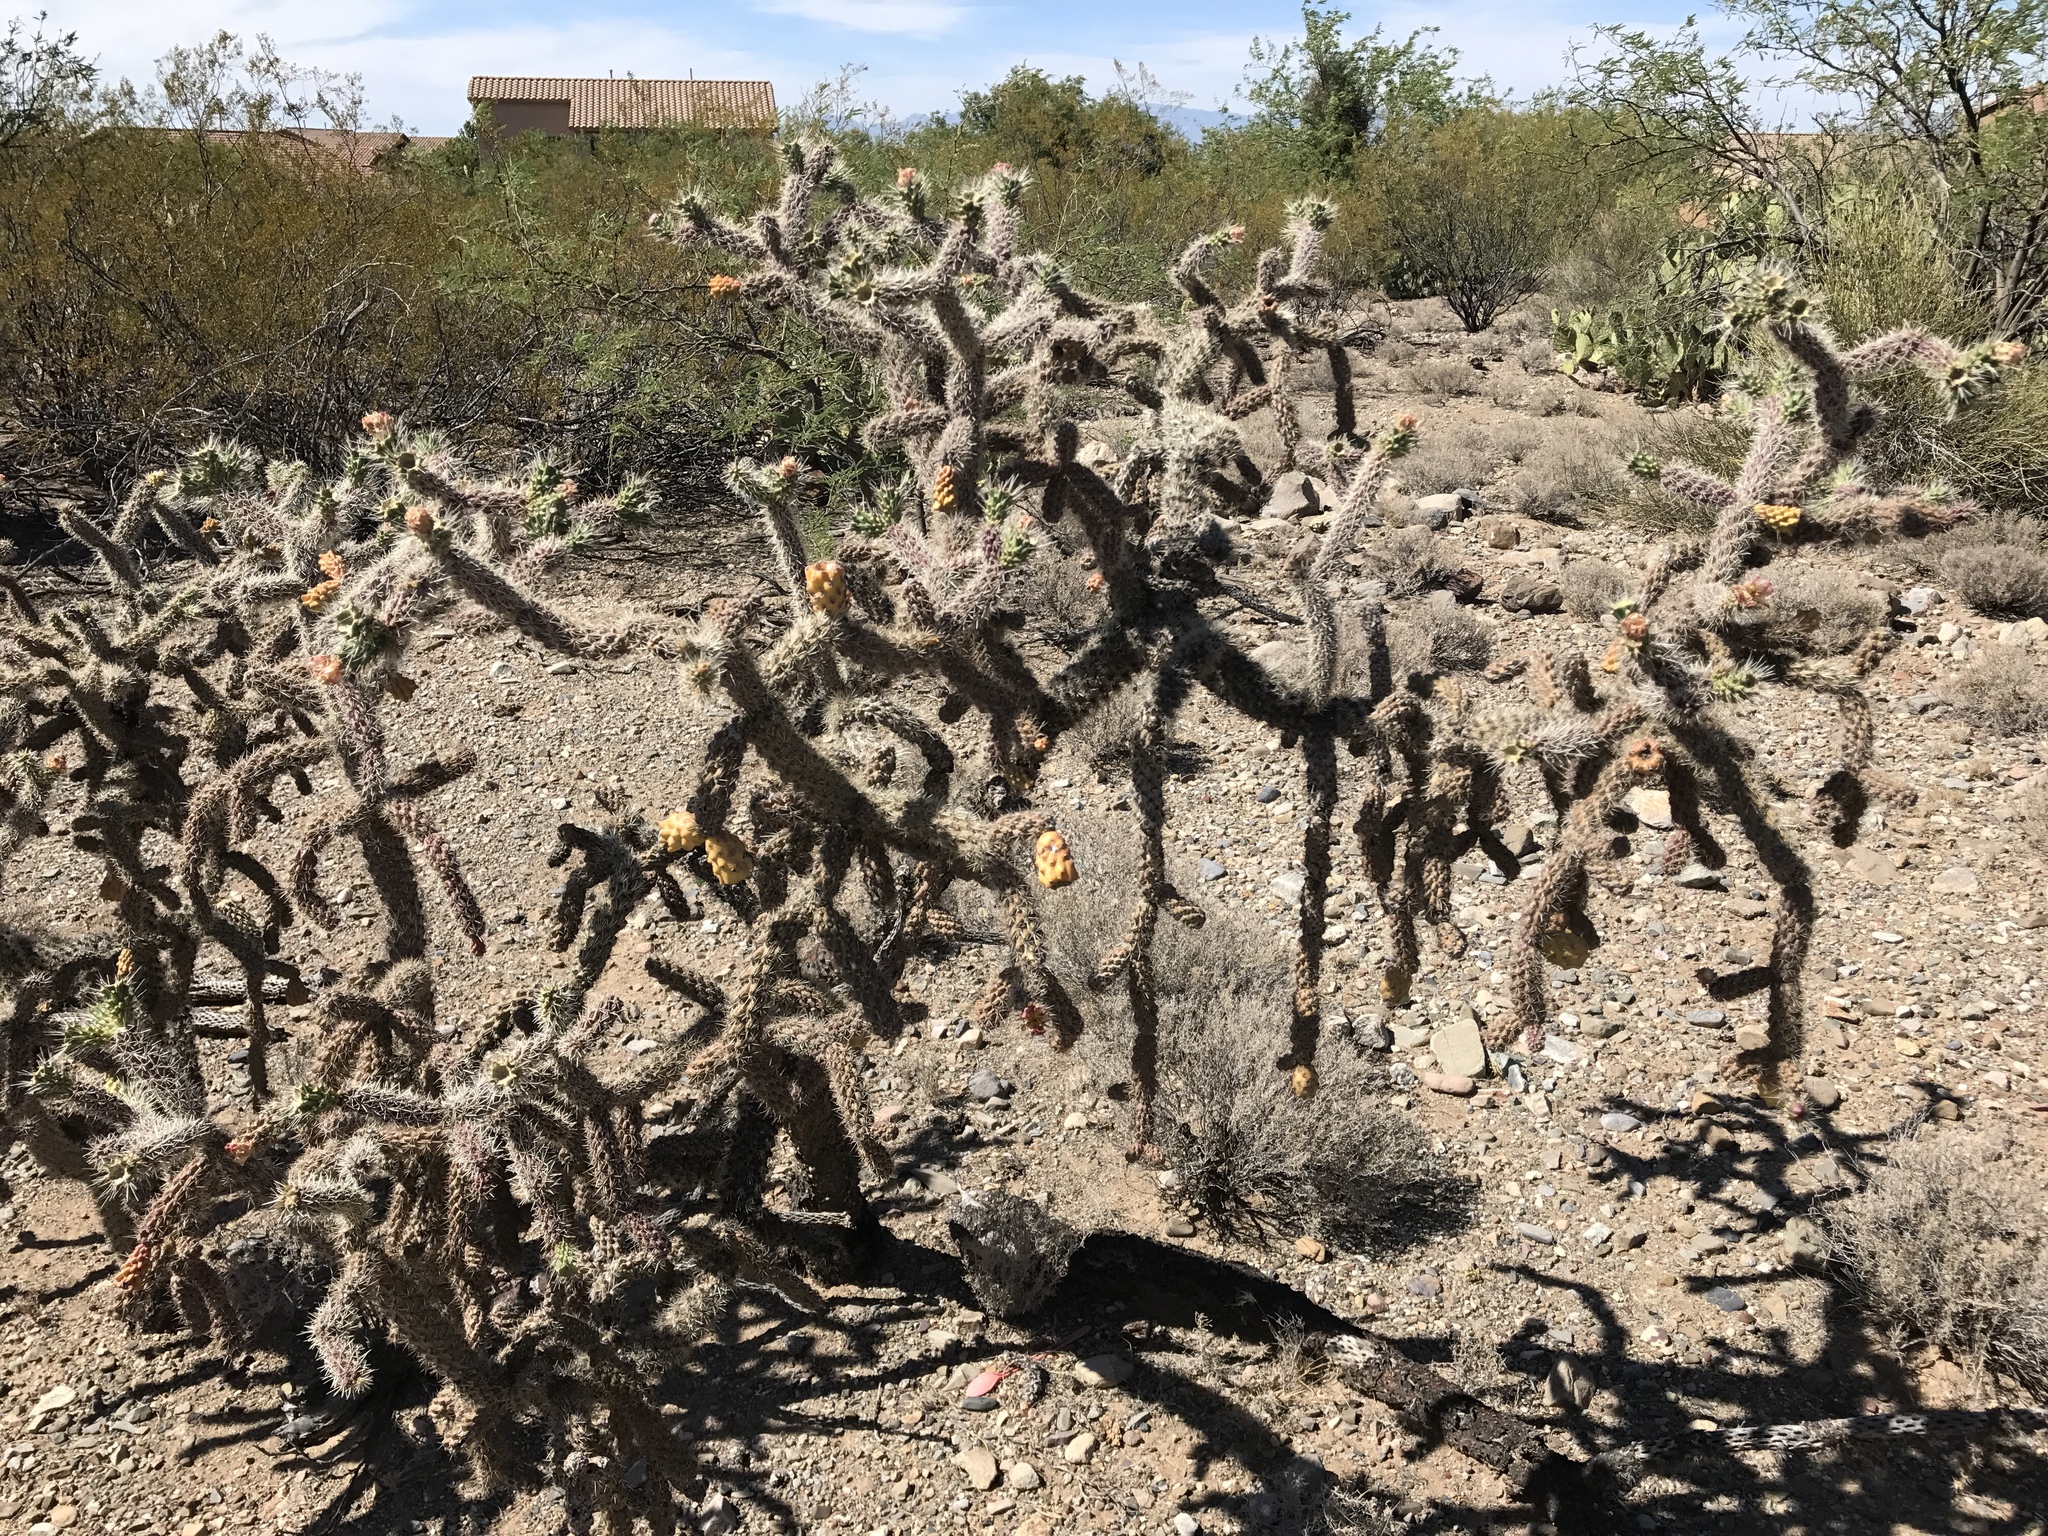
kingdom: Plantae
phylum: Tracheophyta
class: Magnoliopsida
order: Caryophyllales
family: Cactaceae
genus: Cylindropuntia
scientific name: Cylindropuntia imbricata
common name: Candelabrum cactus
